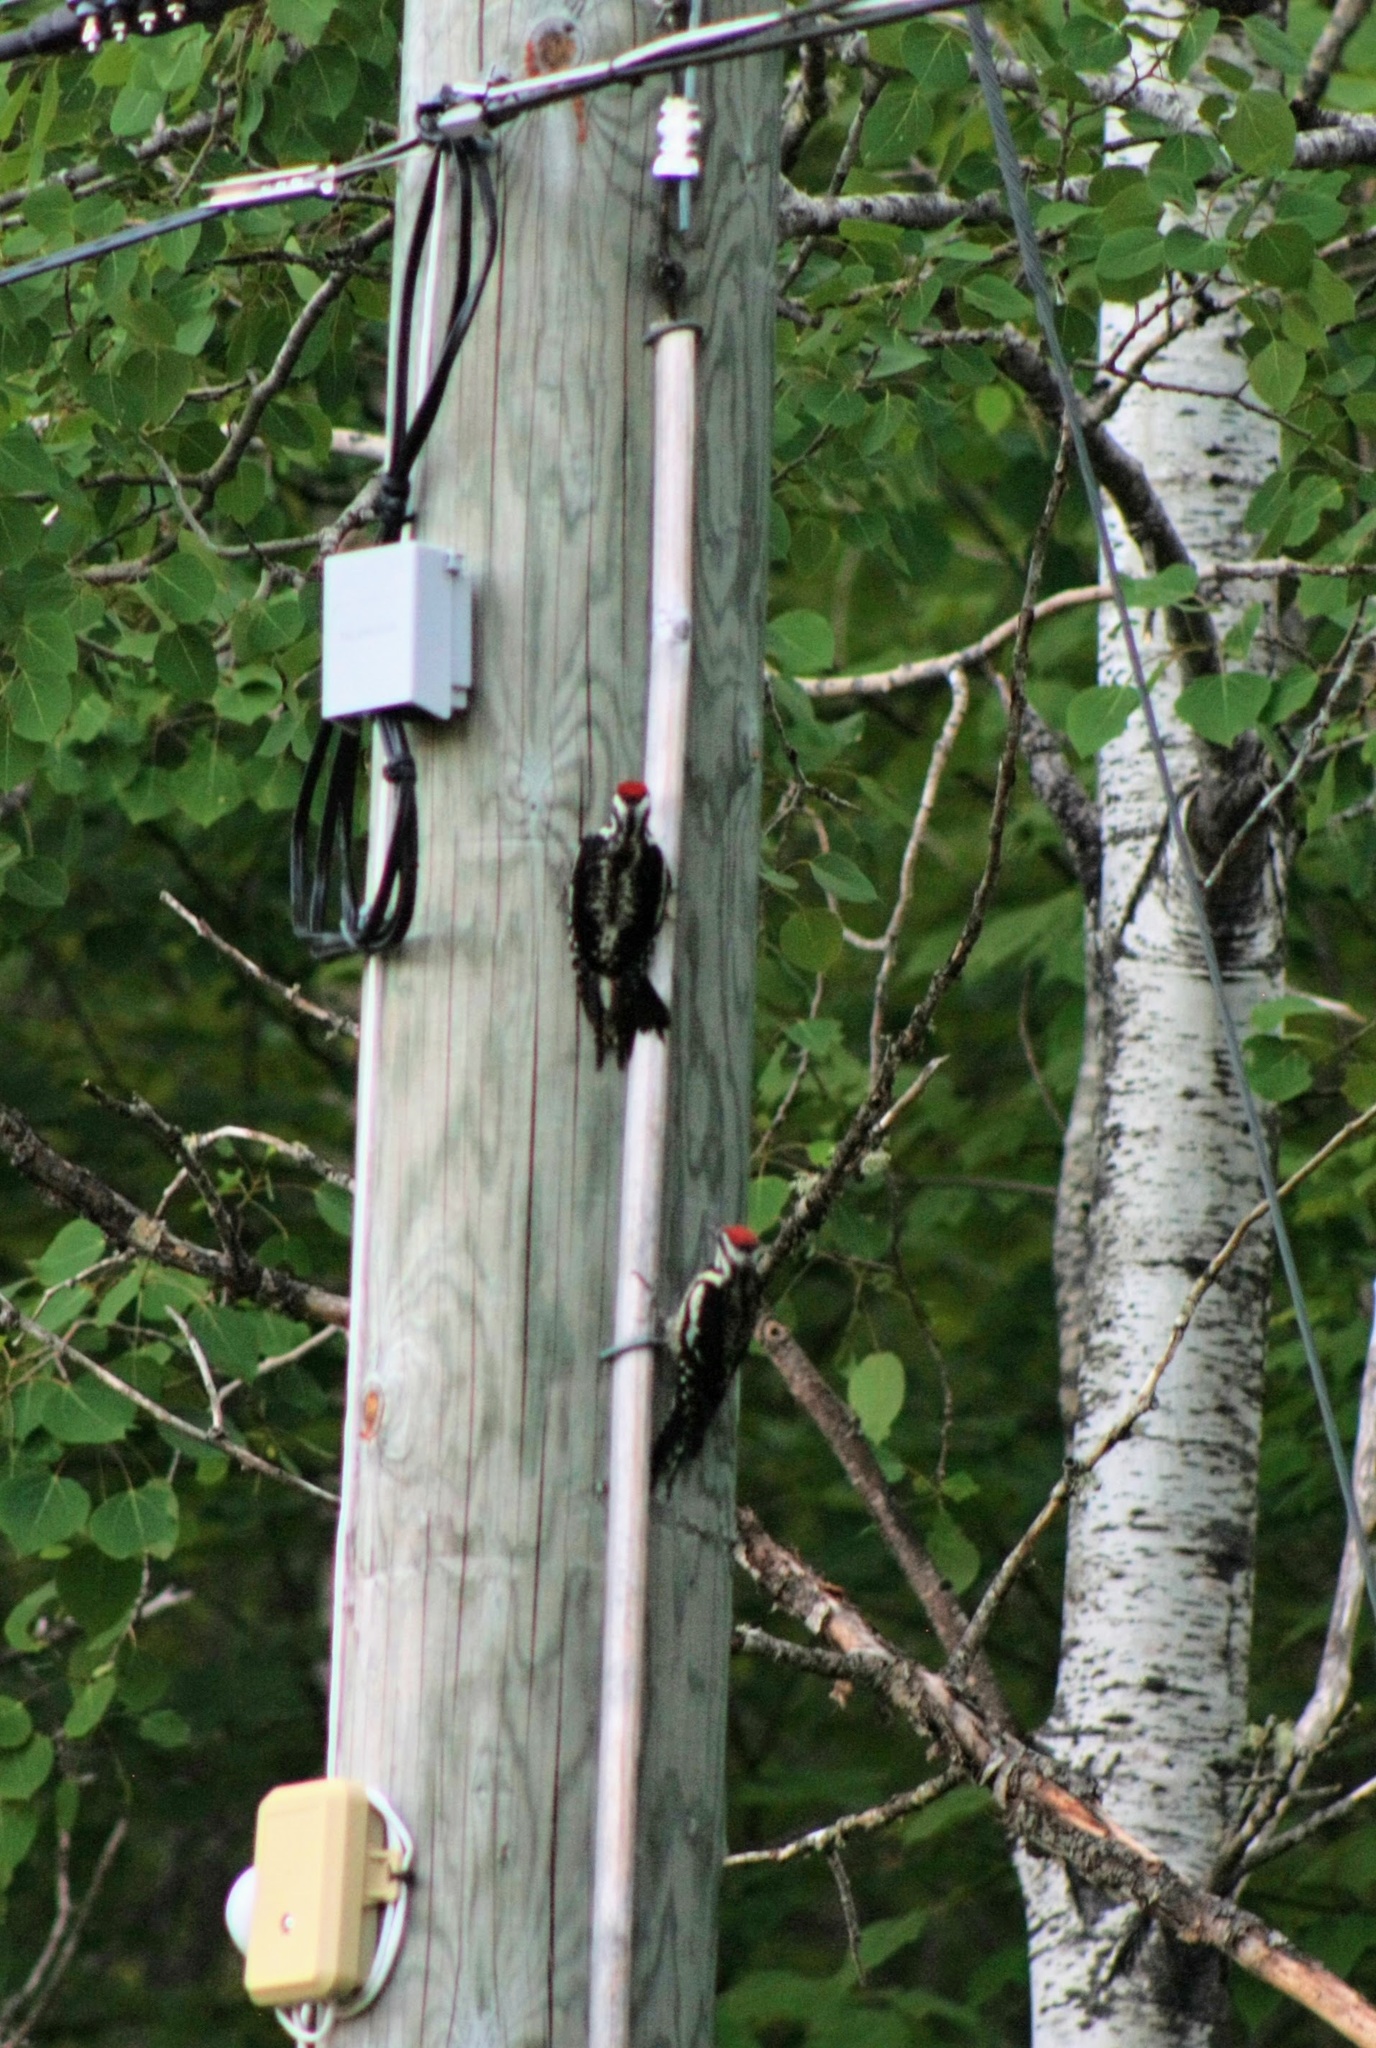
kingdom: Animalia
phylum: Chordata
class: Aves
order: Piciformes
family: Picidae
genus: Sphyrapicus
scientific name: Sphyrapicus varius
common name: Yellow-bellied sapsucker
